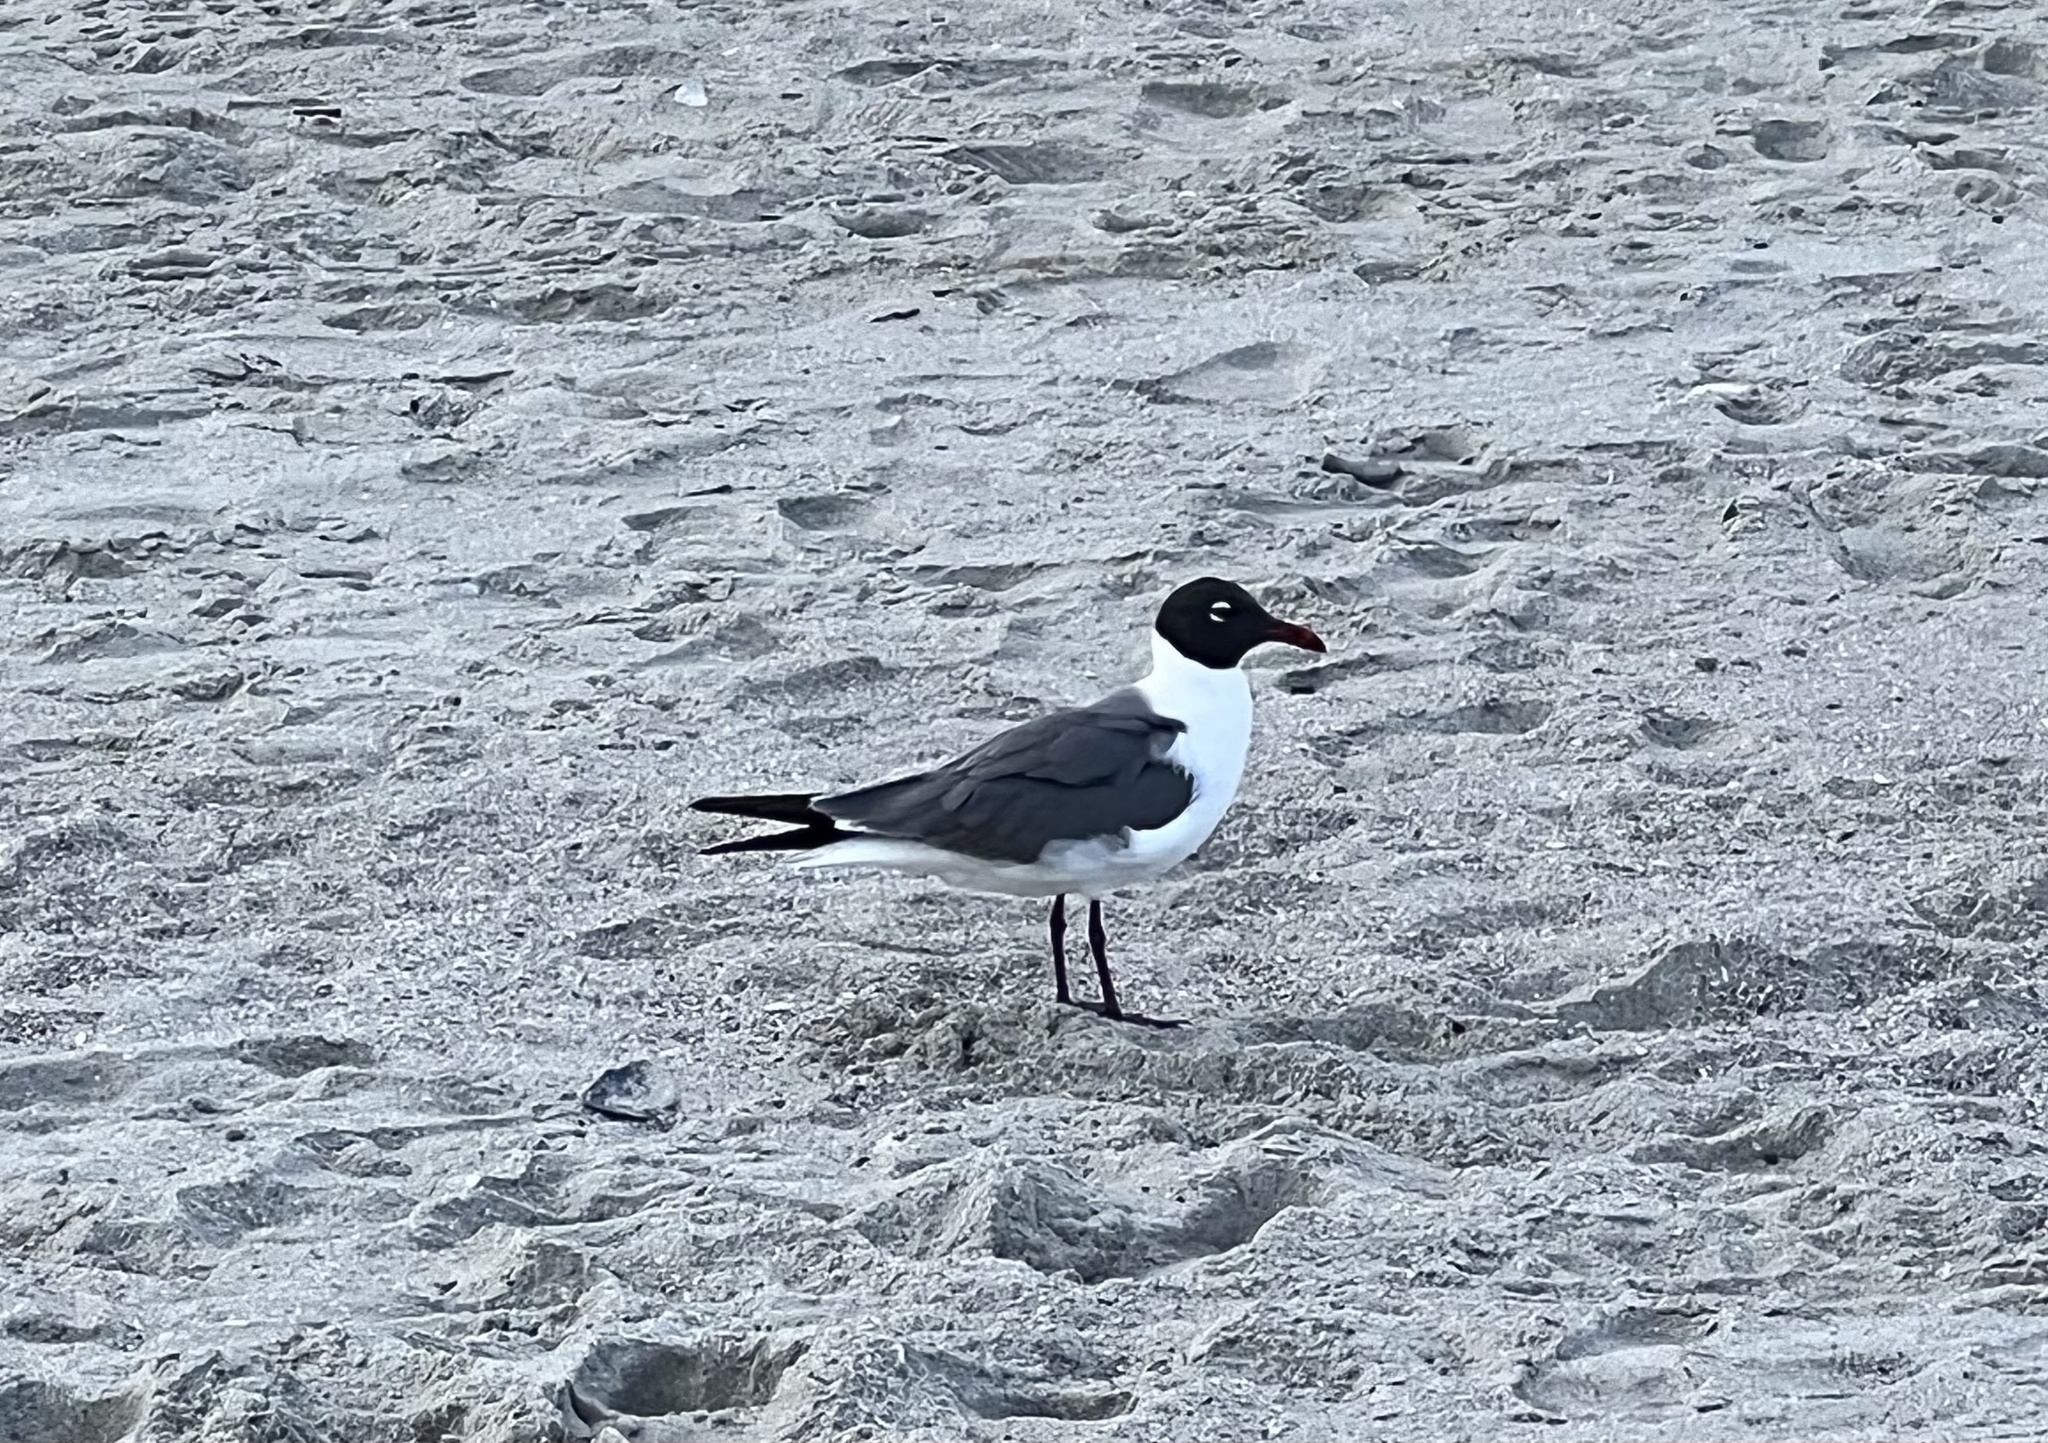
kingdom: Animalia
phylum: Chordata
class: Aves
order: Charadriiformes
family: Laridae
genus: Leucophaeus
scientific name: Leucophaeus atricilla
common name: Laughing gull
